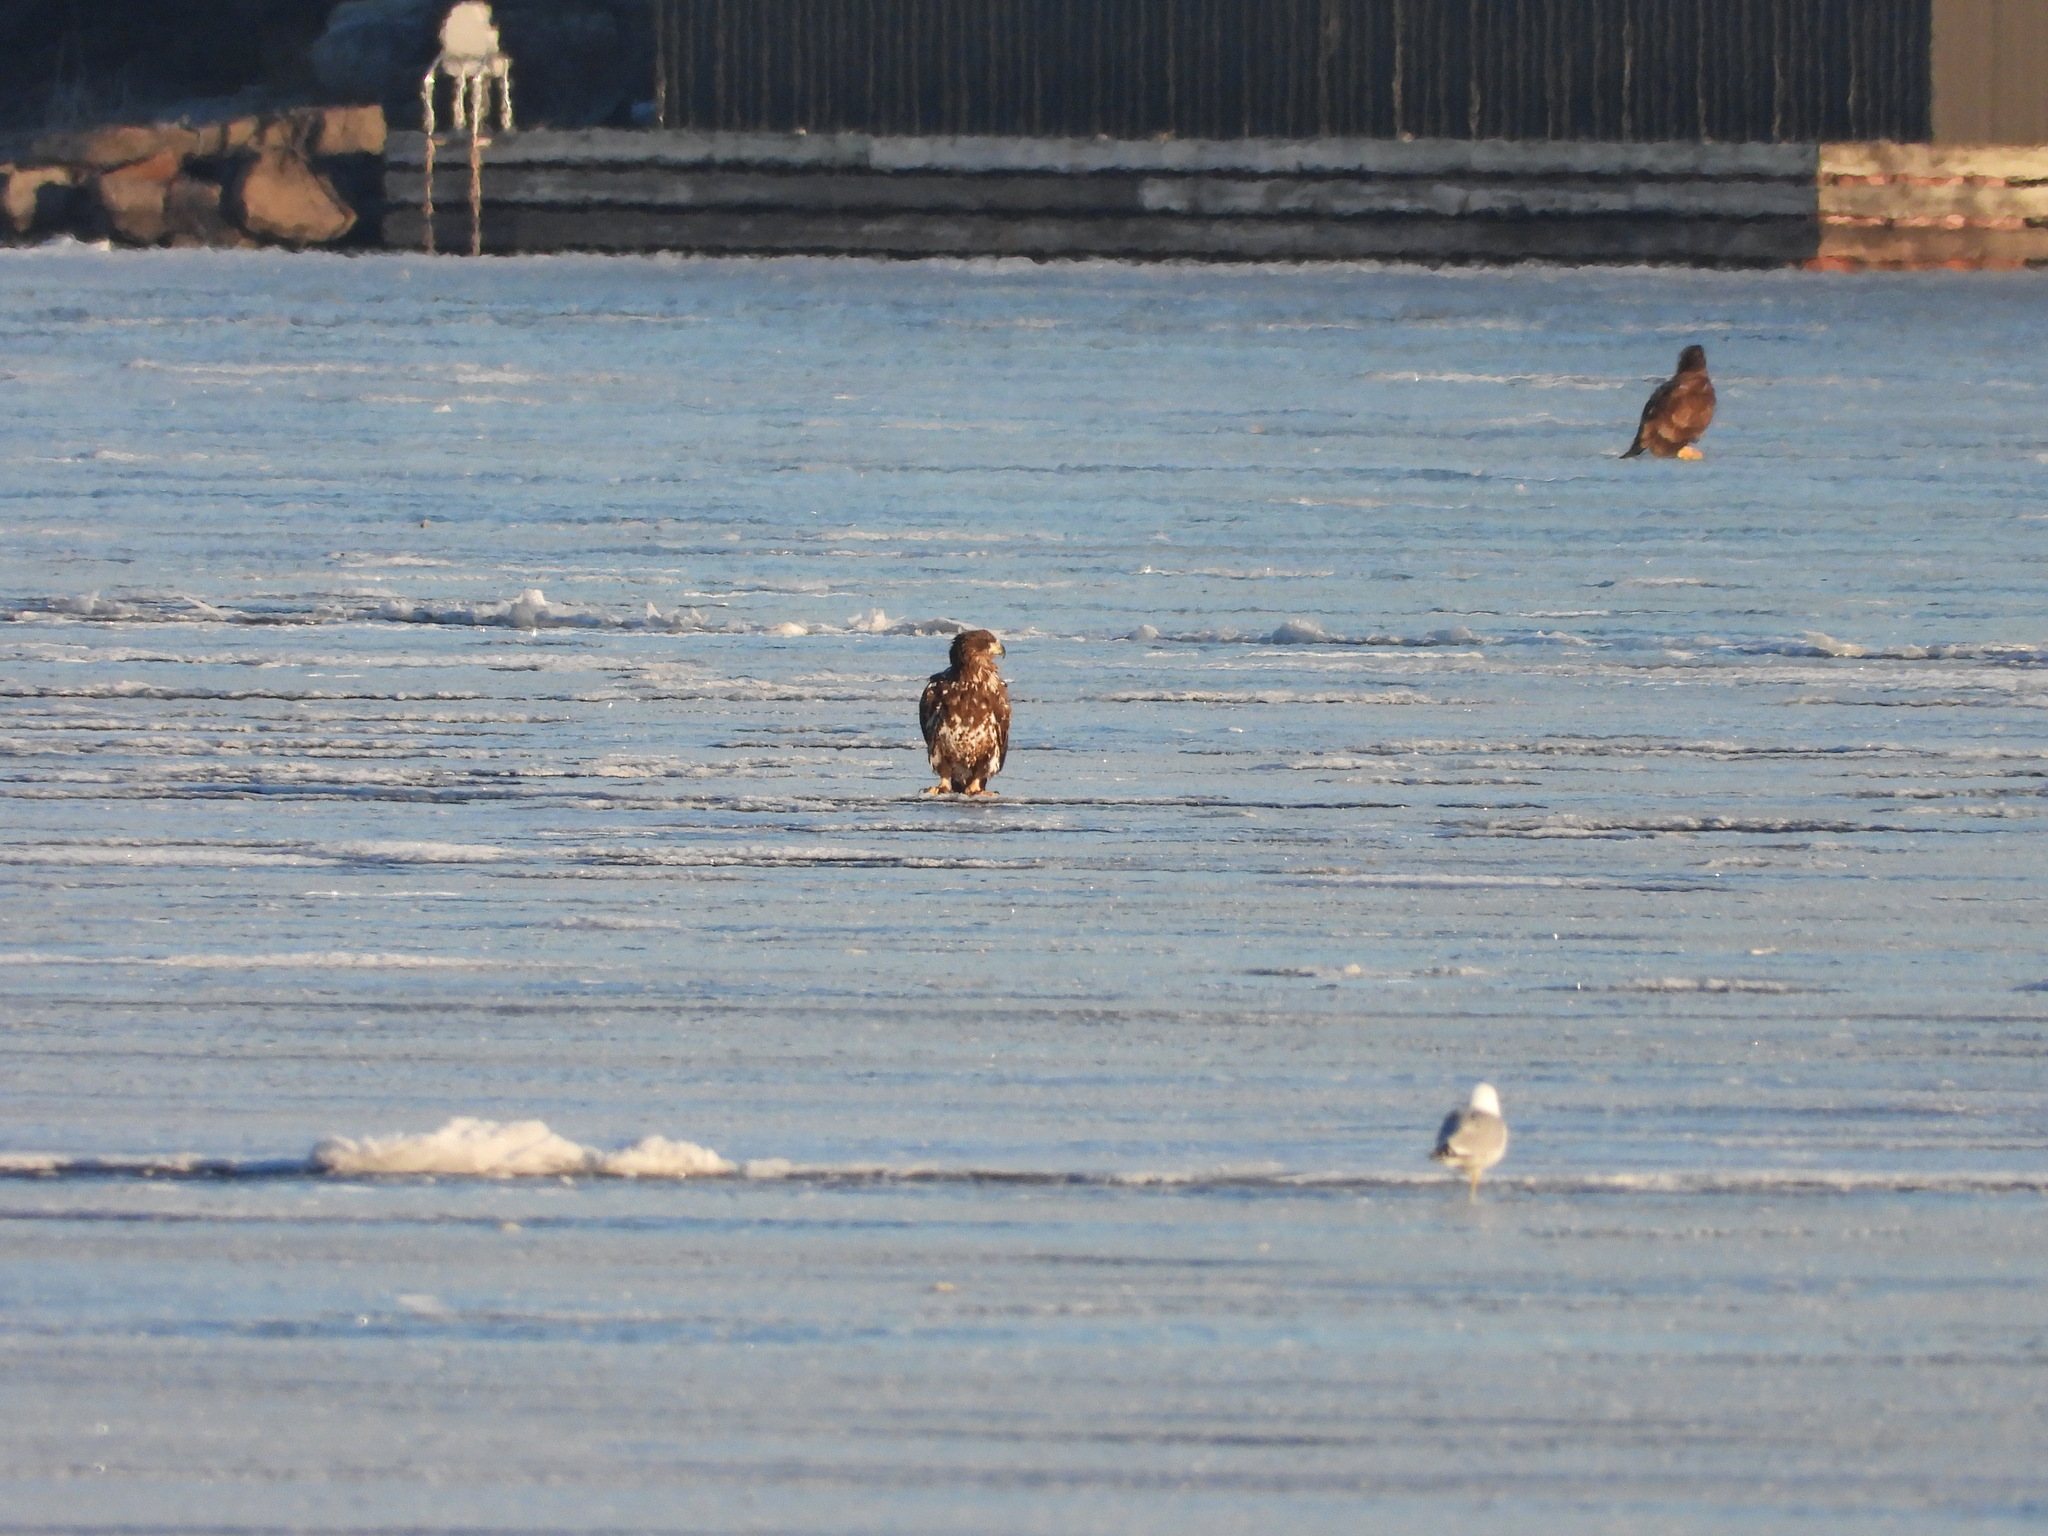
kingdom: Animalia
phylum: Chordata
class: Aves
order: Accipitriformes
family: Accipitridae
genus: Haliaeetus
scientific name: Haliaeetus leucocephalus
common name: Bald eagle
